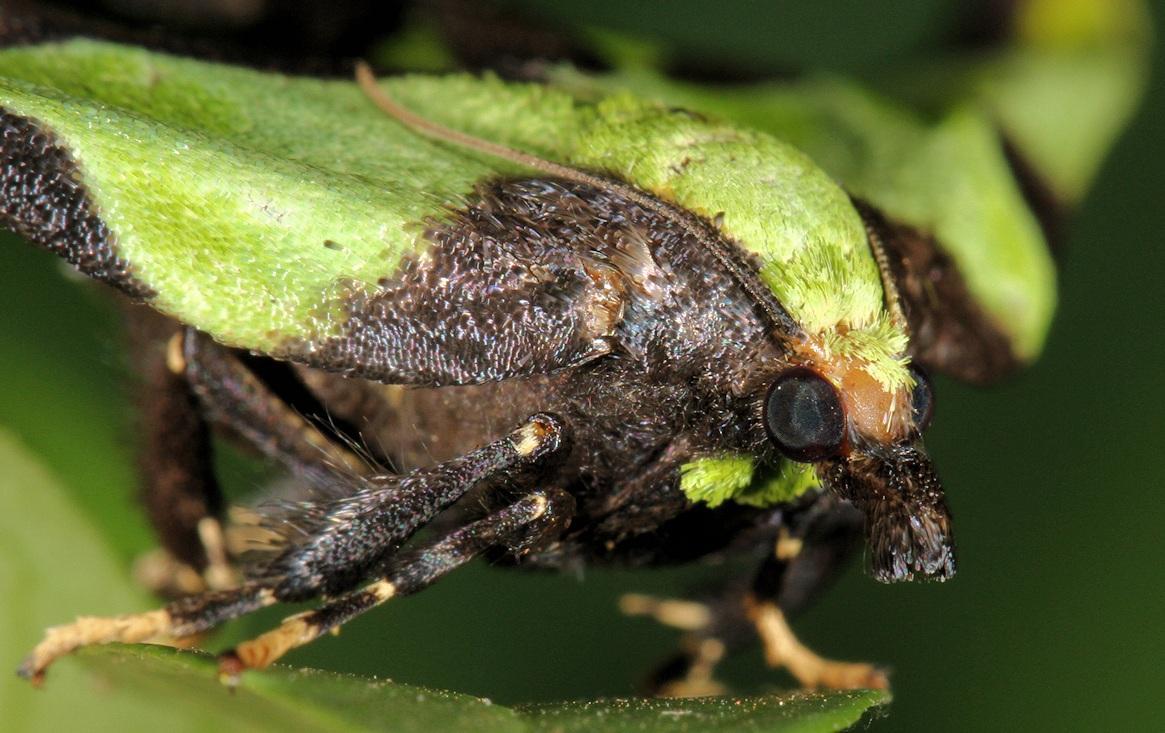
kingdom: Animalia
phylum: Arthropoda
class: Insecta
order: Lepidoptera
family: Pyralidae
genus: Mittonia
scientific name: Mittonia hampsoni
